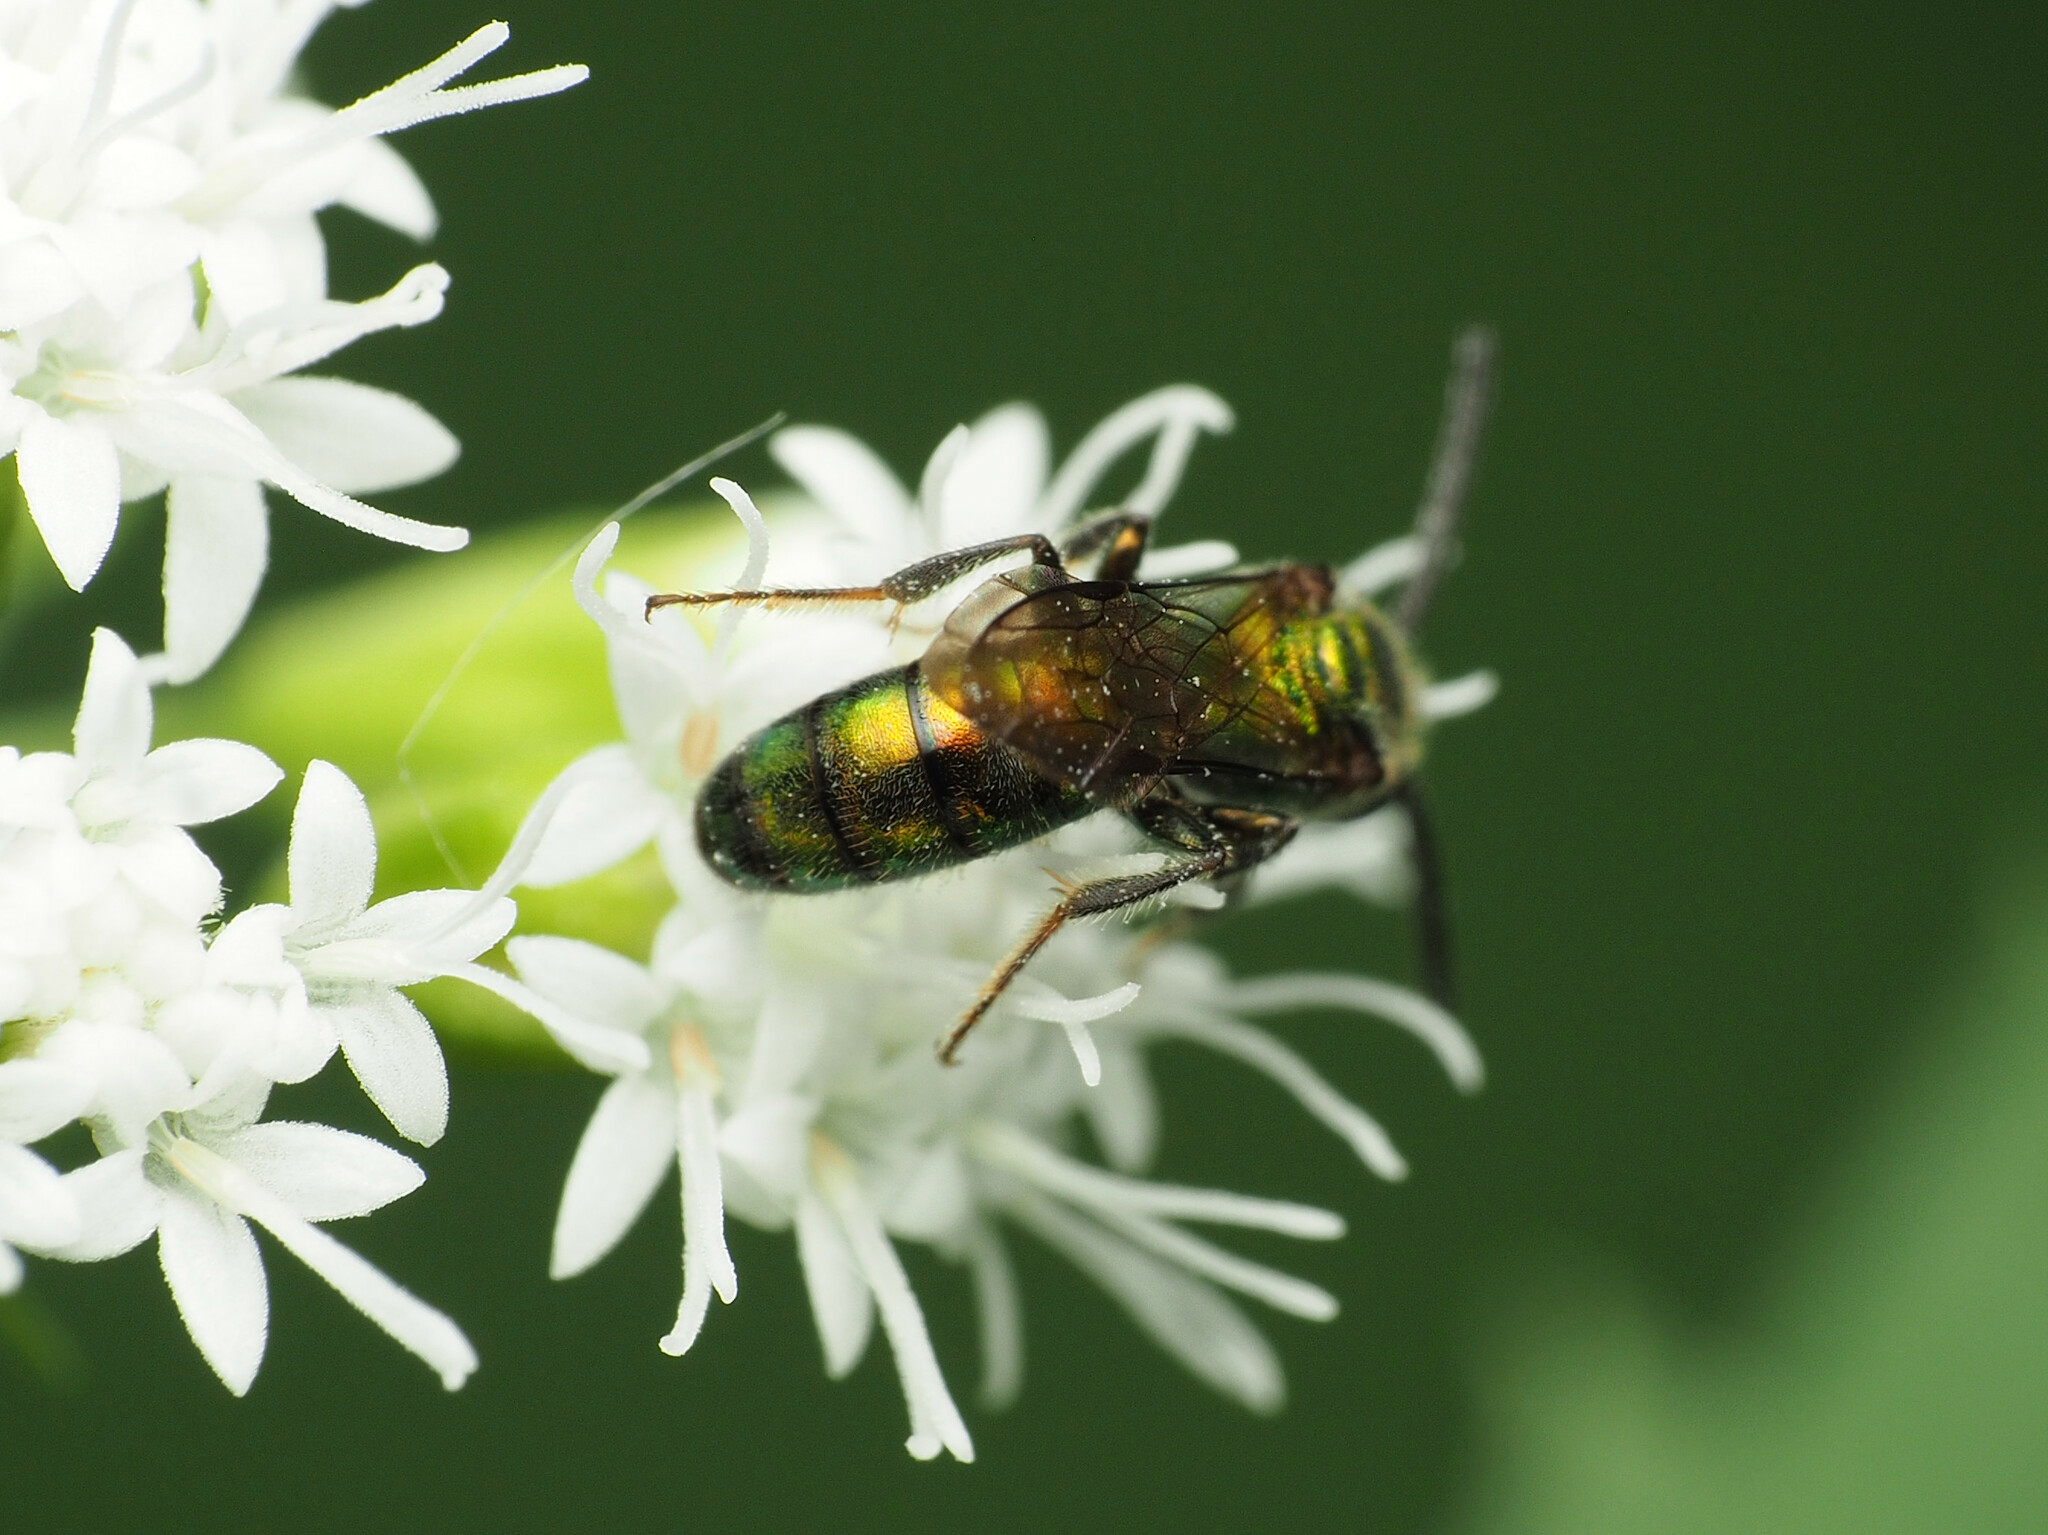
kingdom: Animalia
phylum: Arthropoda
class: Insecta
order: Hymenoptera
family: Halictidae
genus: Augochlora
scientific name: Augochlora pura
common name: Pure green sweat bee
